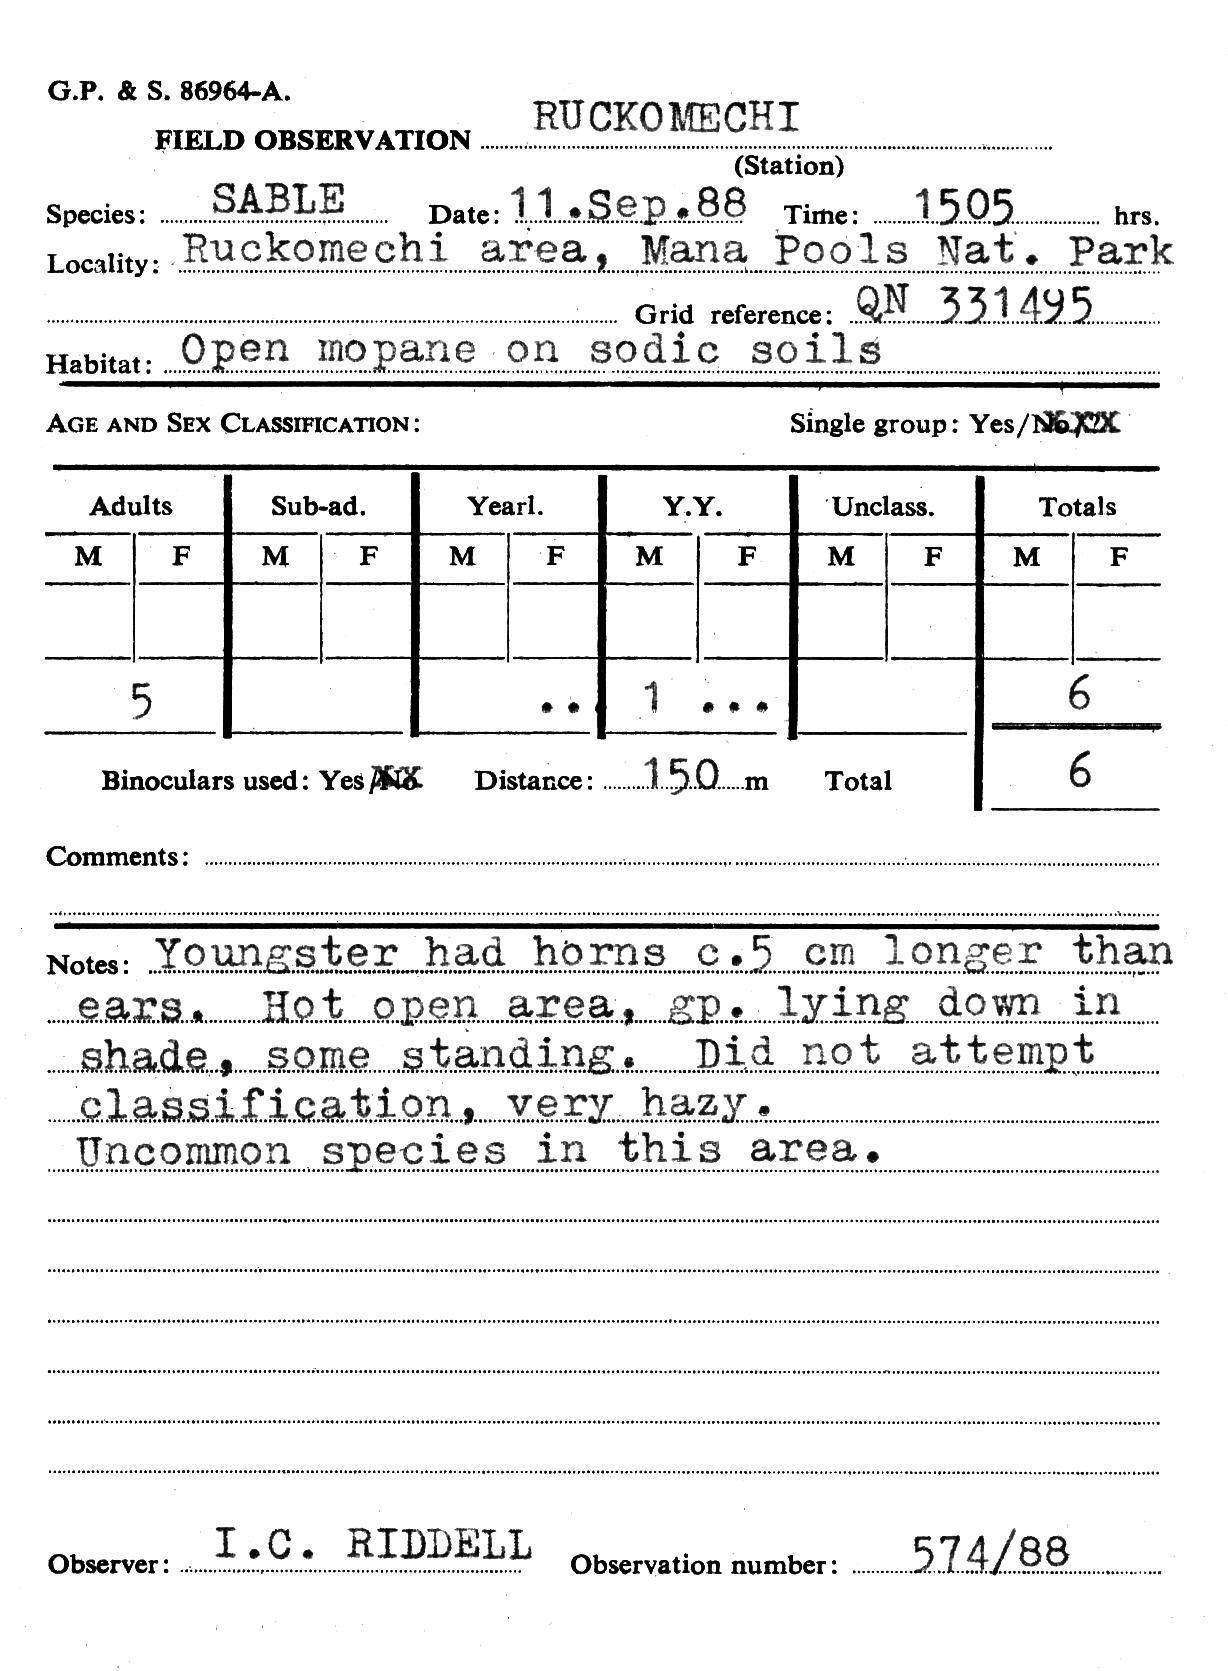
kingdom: Animalia
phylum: Chordata
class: Mammalia
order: Artiodactyla
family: Bovidae
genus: Hippotragus
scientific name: Hippotragus niger
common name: Sable antelope
